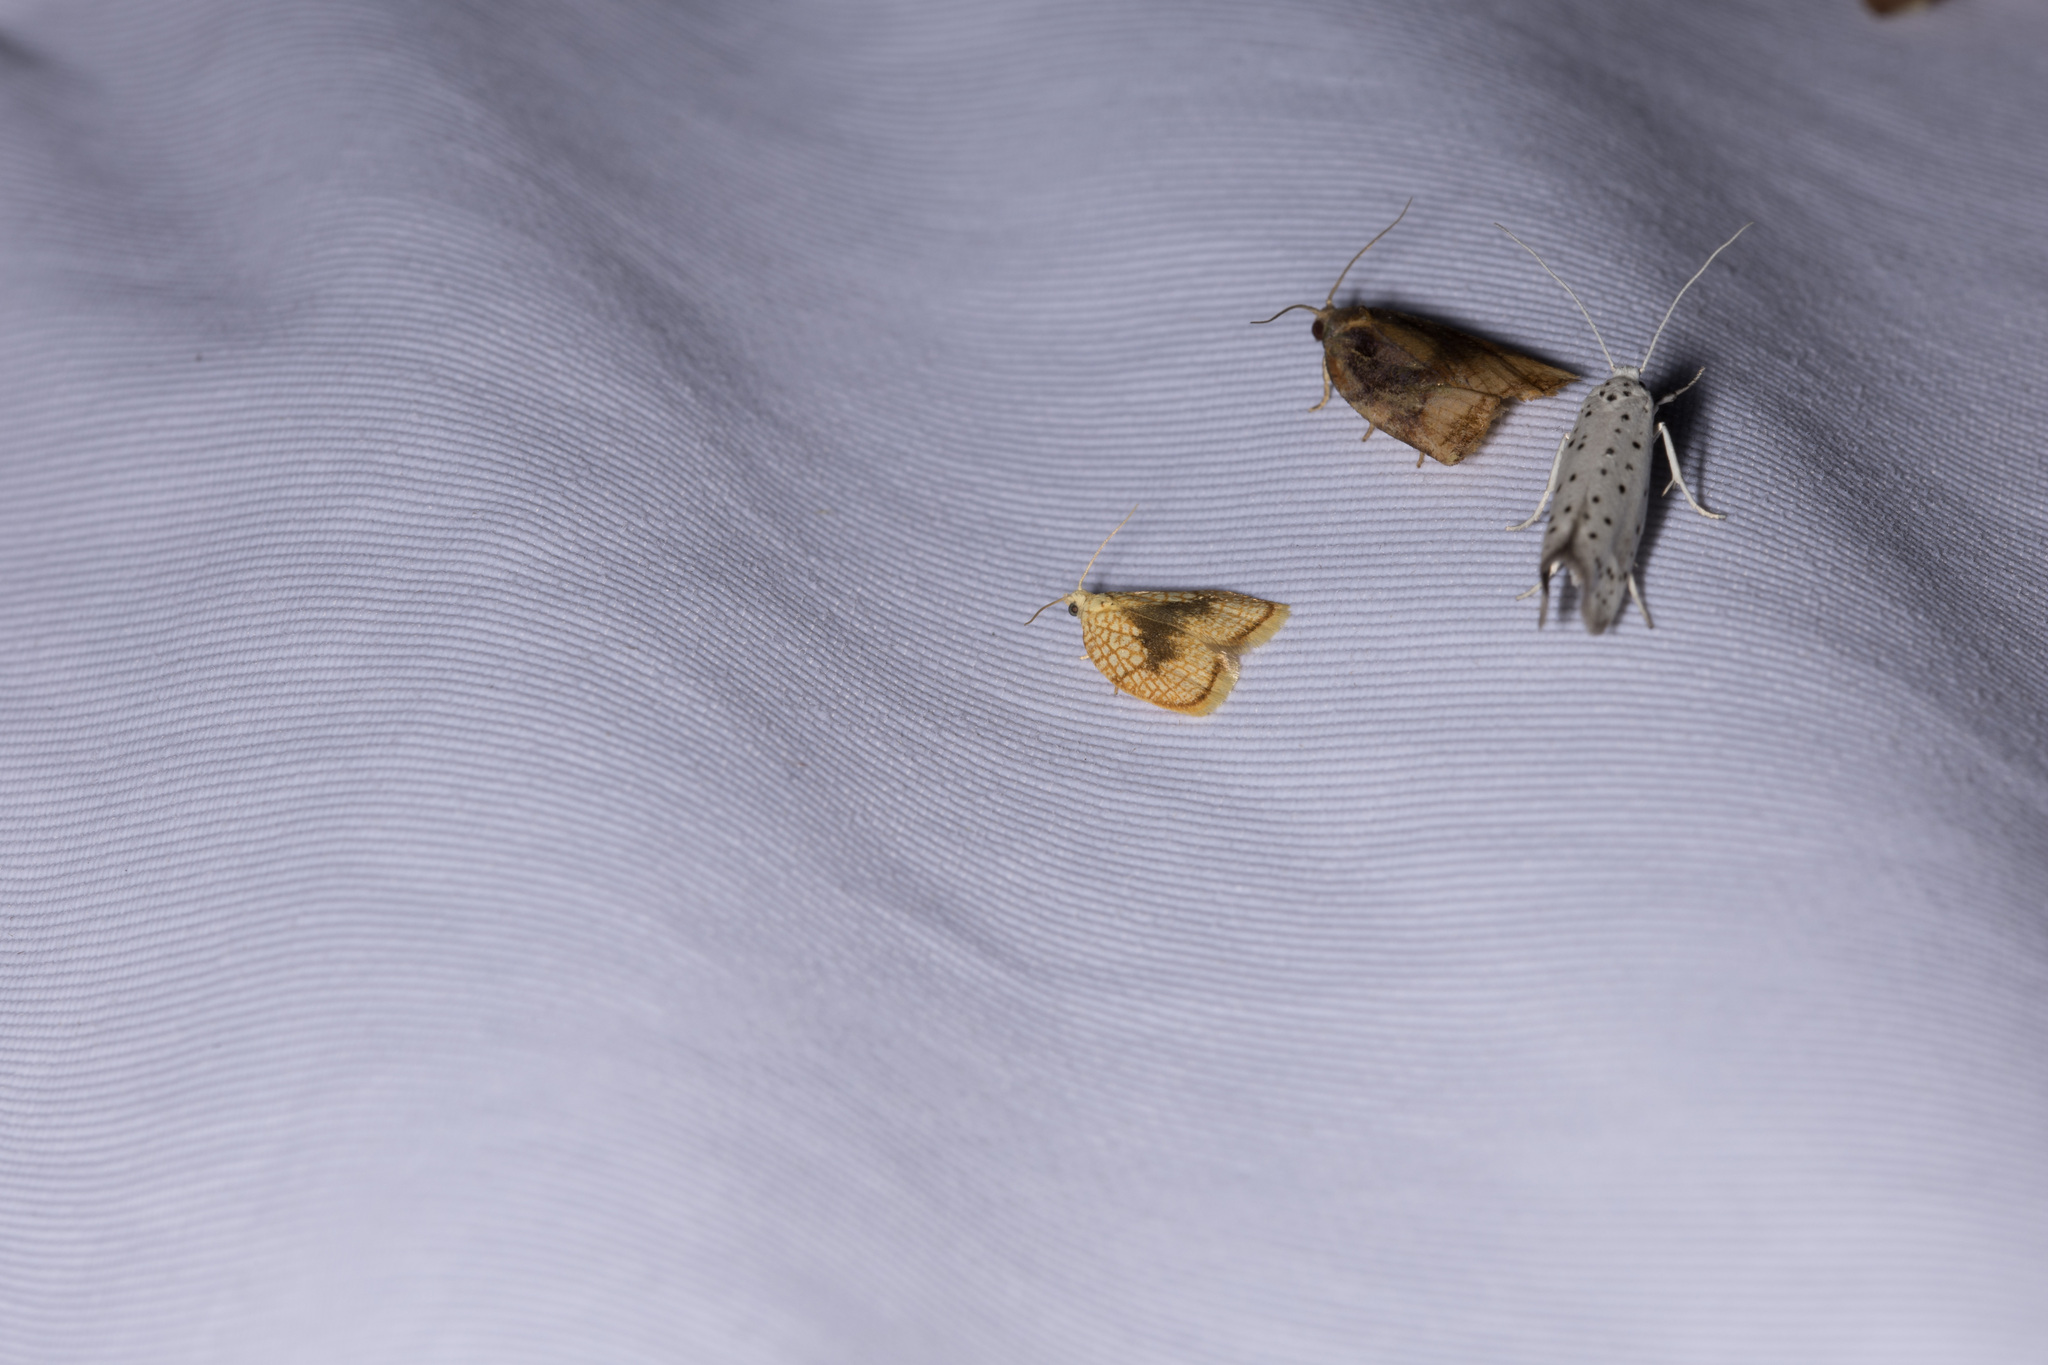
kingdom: Animalia
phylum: Arthropoda
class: Insecta
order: Lepidoptera
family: Tortricidae
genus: Acleris
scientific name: Acleris forsskaleana
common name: Maple button
